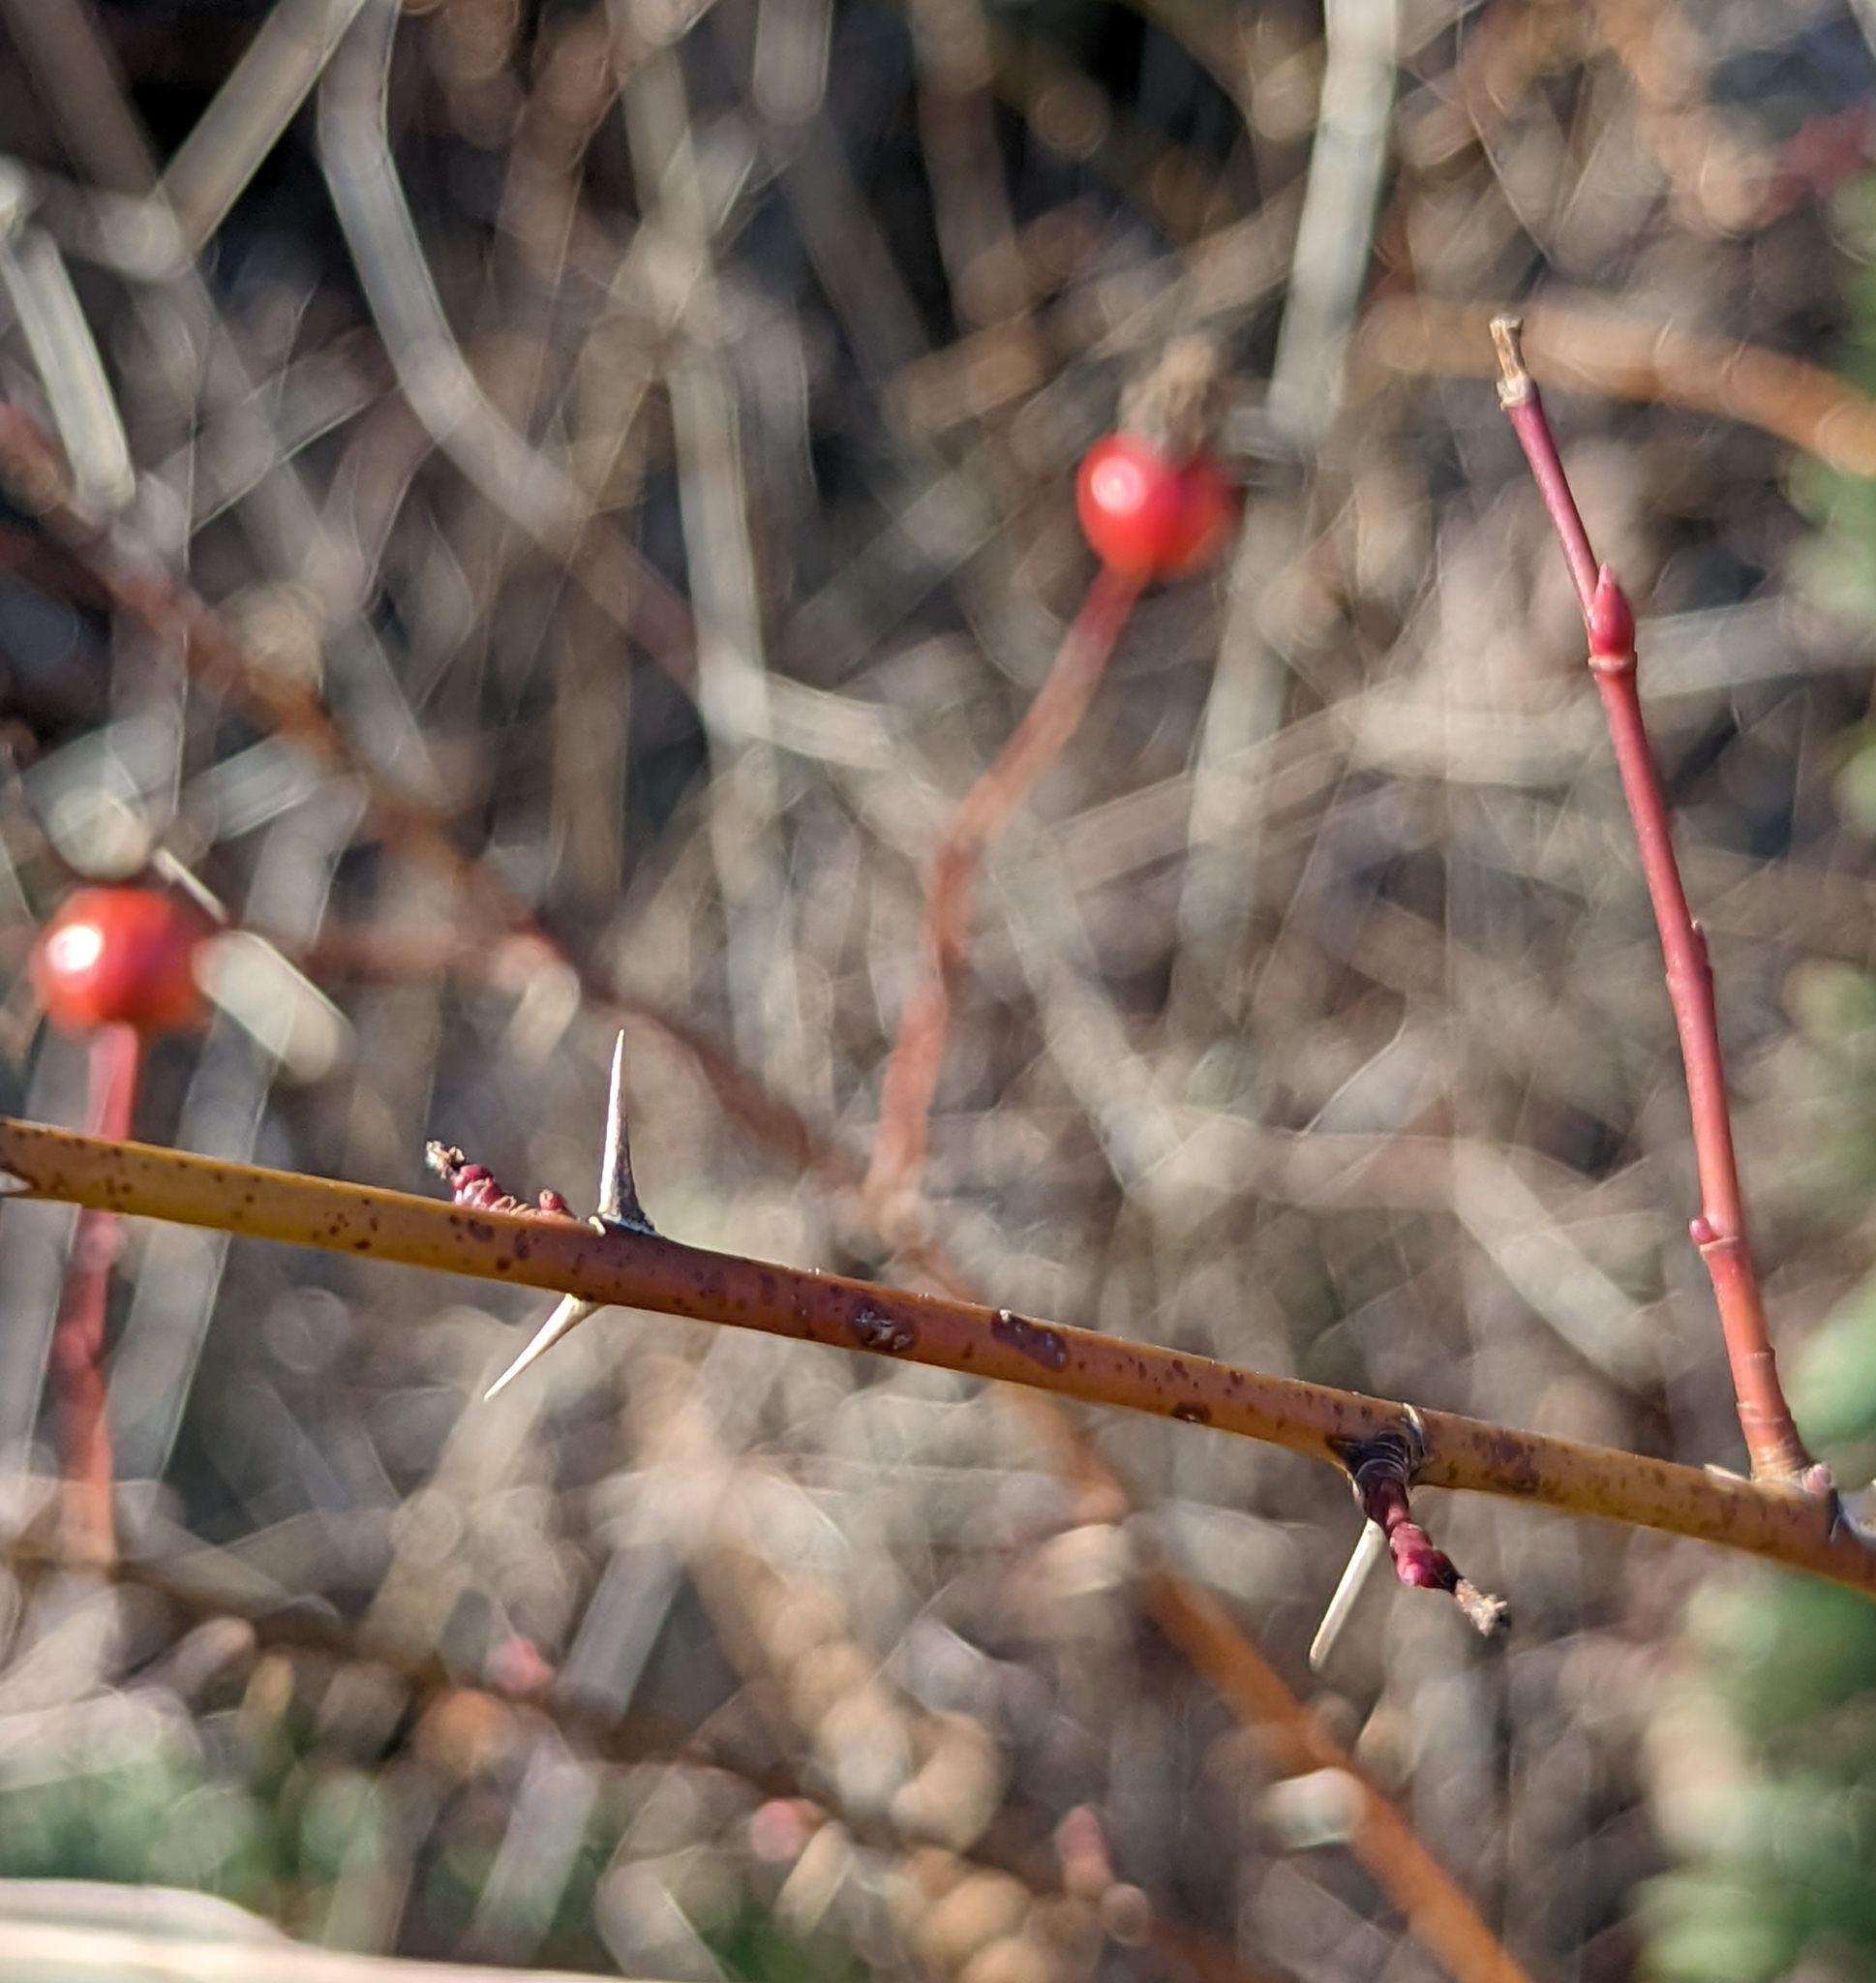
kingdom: Plantae
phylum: Tracheophyta
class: Magnoliopsida
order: Rosales
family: Rosaceae
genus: Rosa
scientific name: Rosa nutkana
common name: Nootka rose
